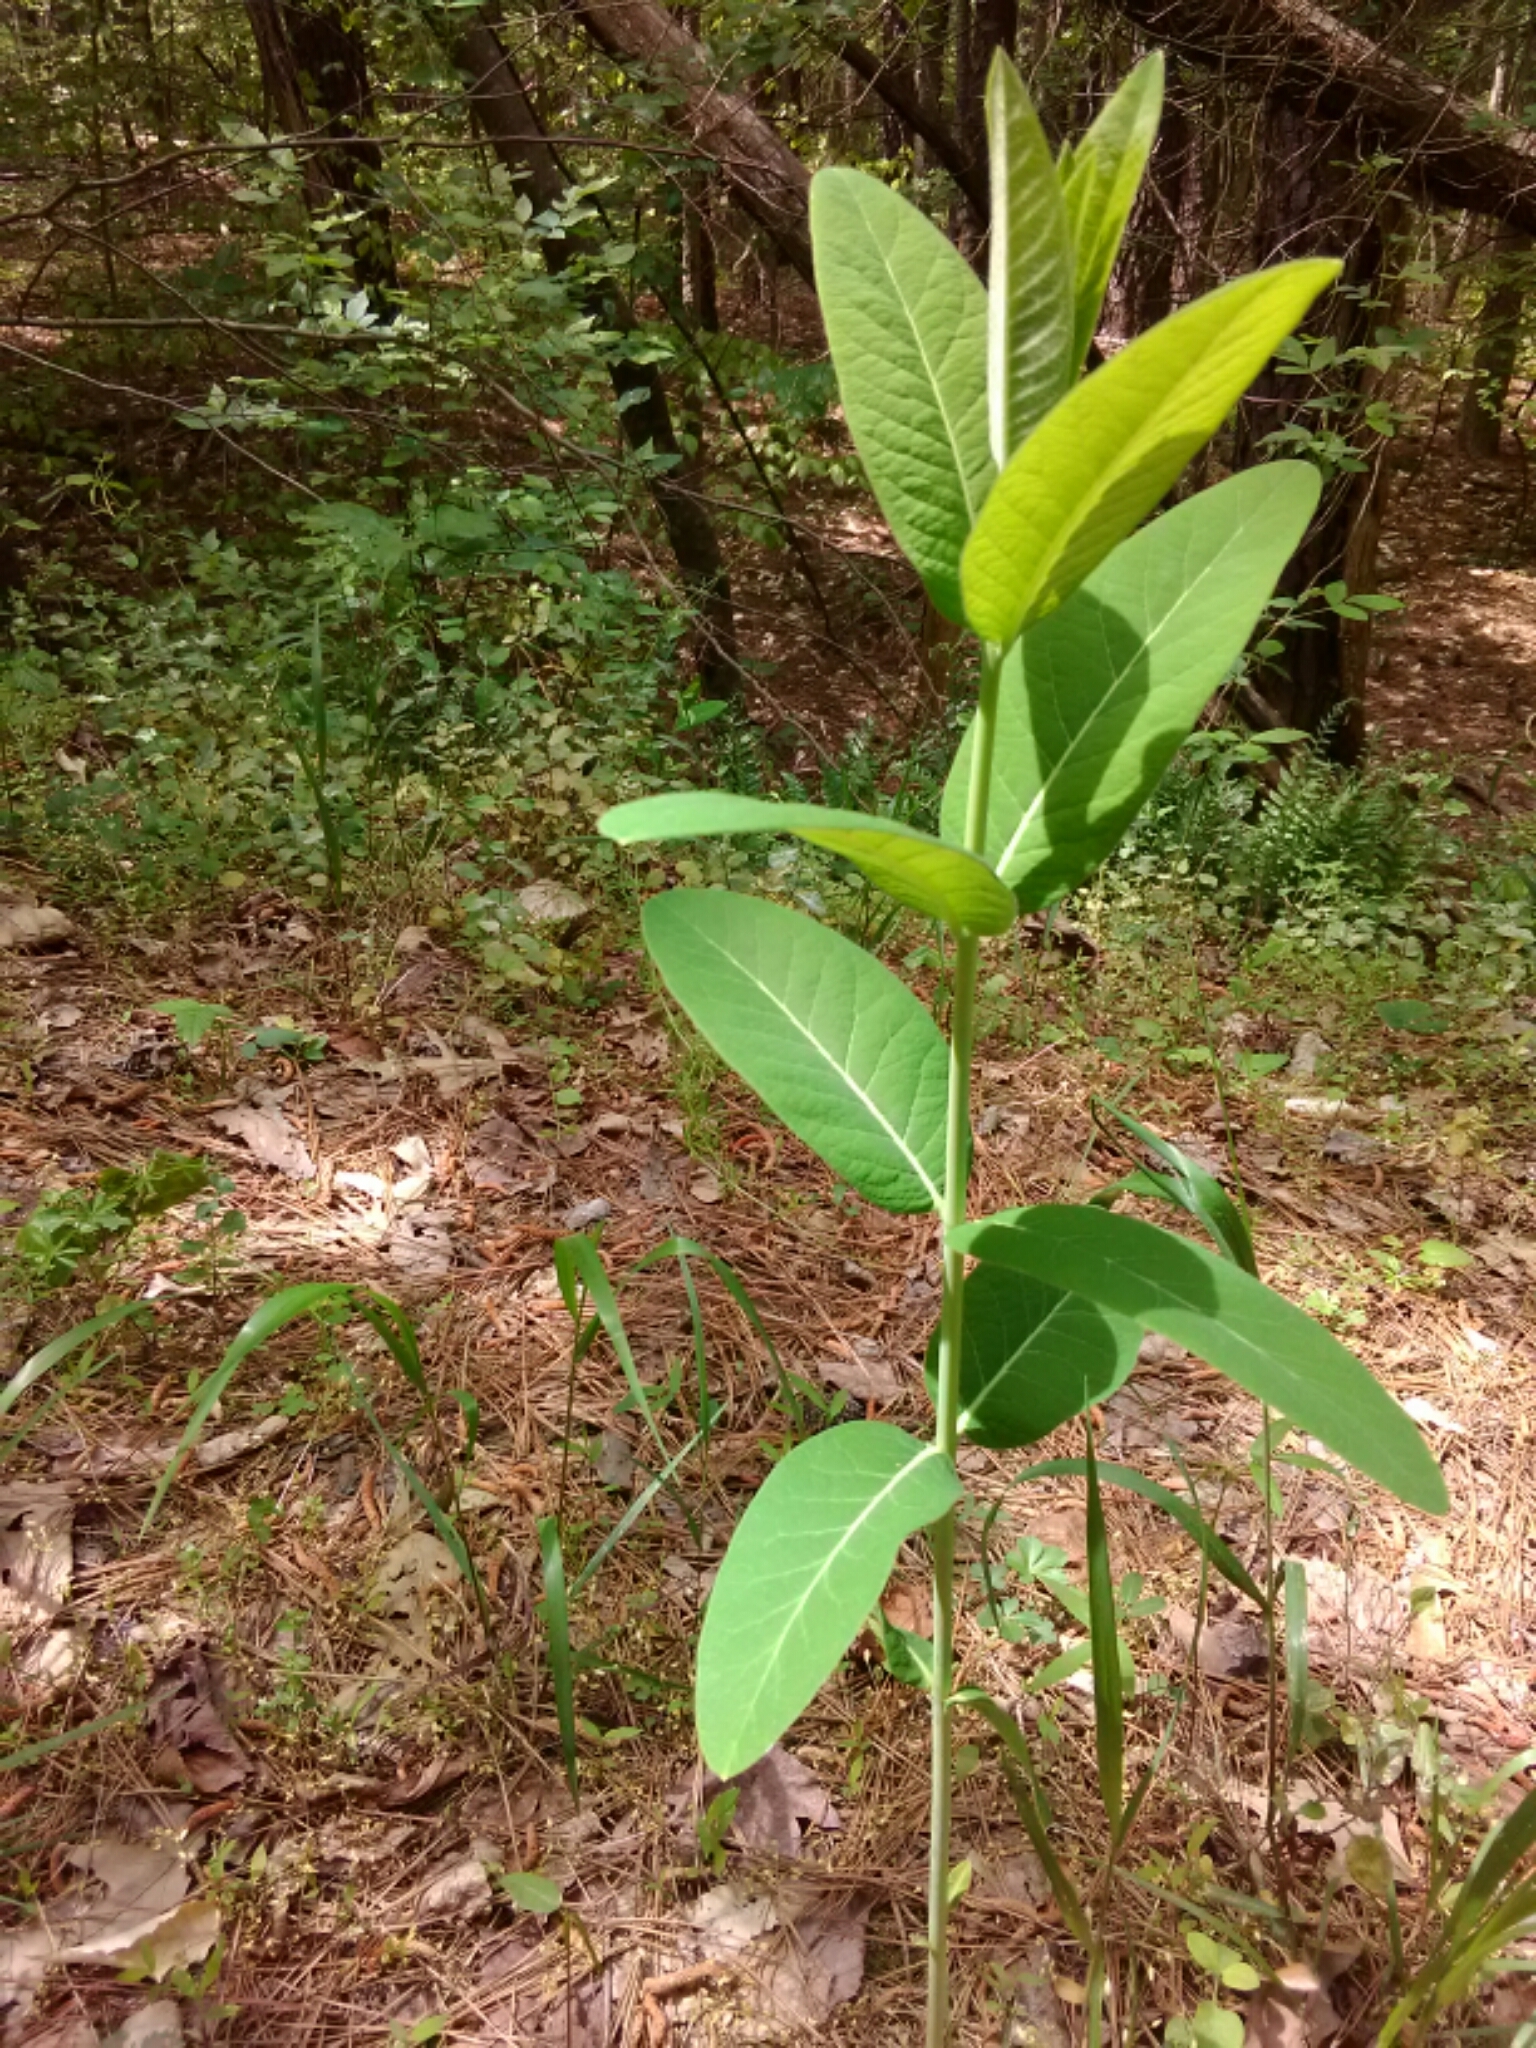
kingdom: Plantae
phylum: Tracheophyta
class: Magnoliopsida
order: Gentianales
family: Apocynaceae
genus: Apocynum
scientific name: Apocynum cannabinum
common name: Hemp dogbane
